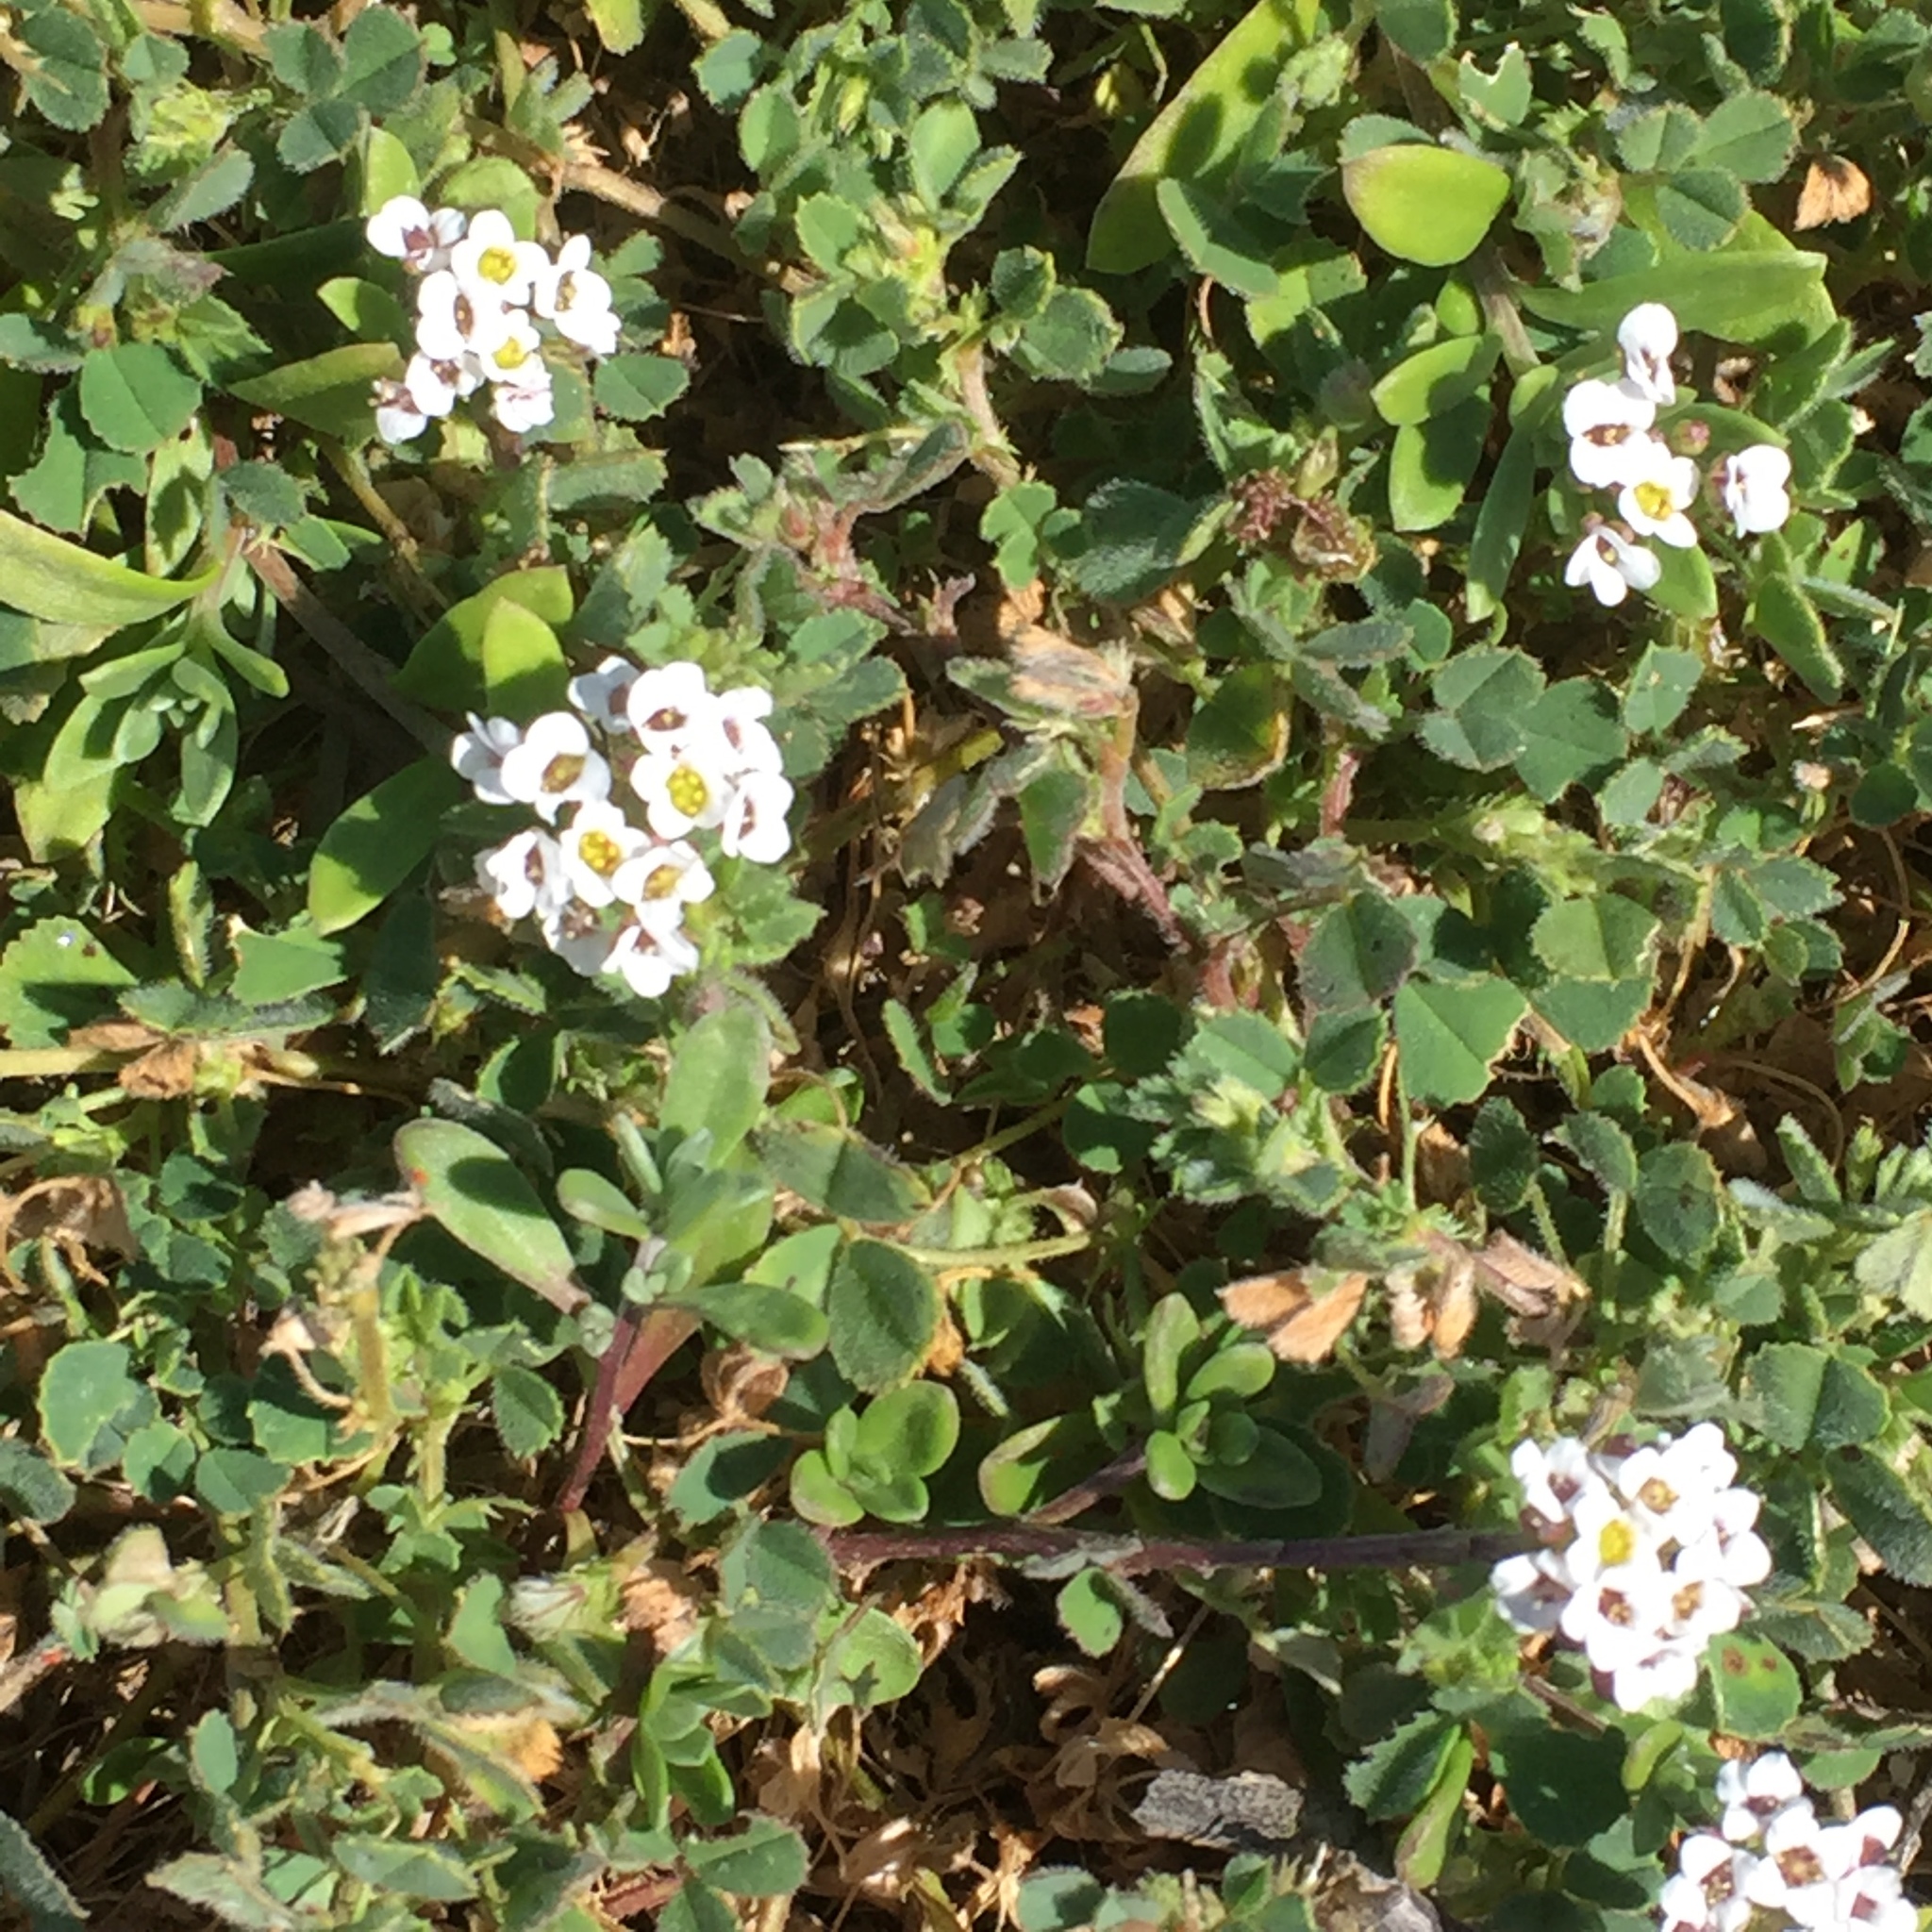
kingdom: Plantae
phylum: Tracheophyta
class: Magnoliopsida
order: Brassicales
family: Brassicaceae
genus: Lobularia
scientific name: Lobularia maritima
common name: Sweet alison
